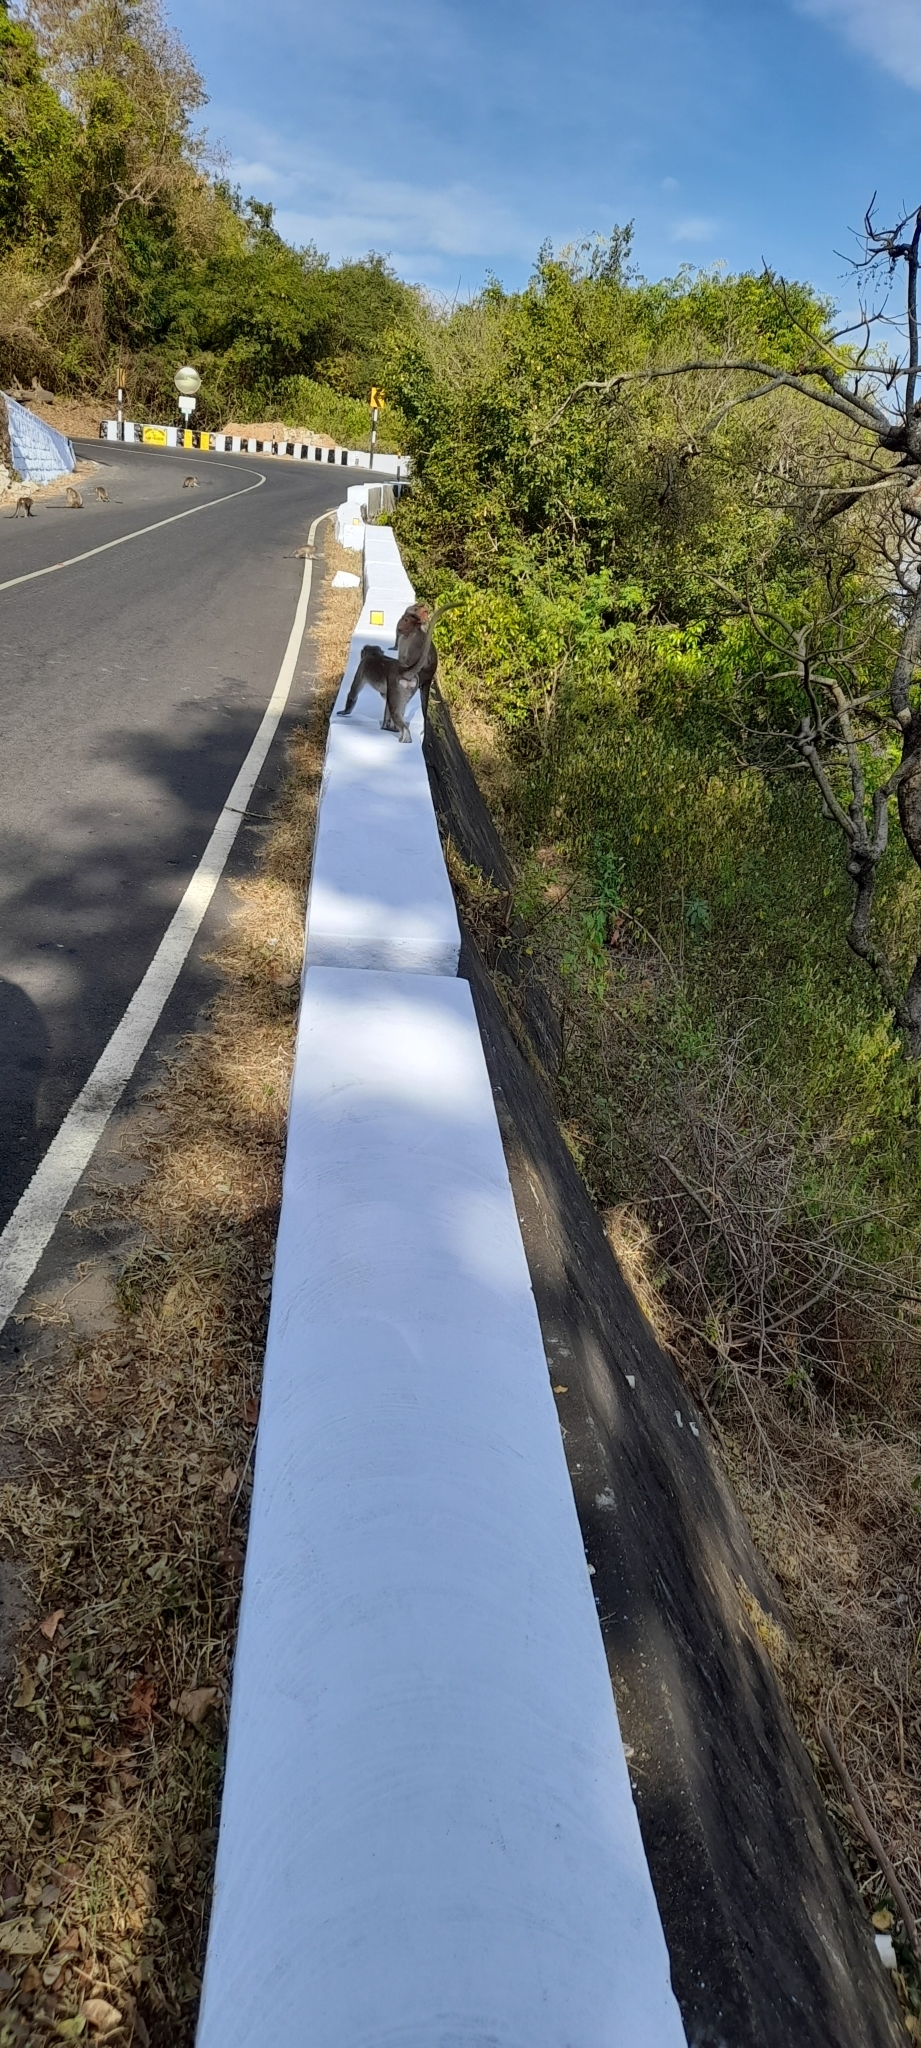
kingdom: Animalia
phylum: Chordata
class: Mammalia
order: Primates
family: Cercopithecidae
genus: Macaca
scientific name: Macaca radiata
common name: Bonnet macaque
